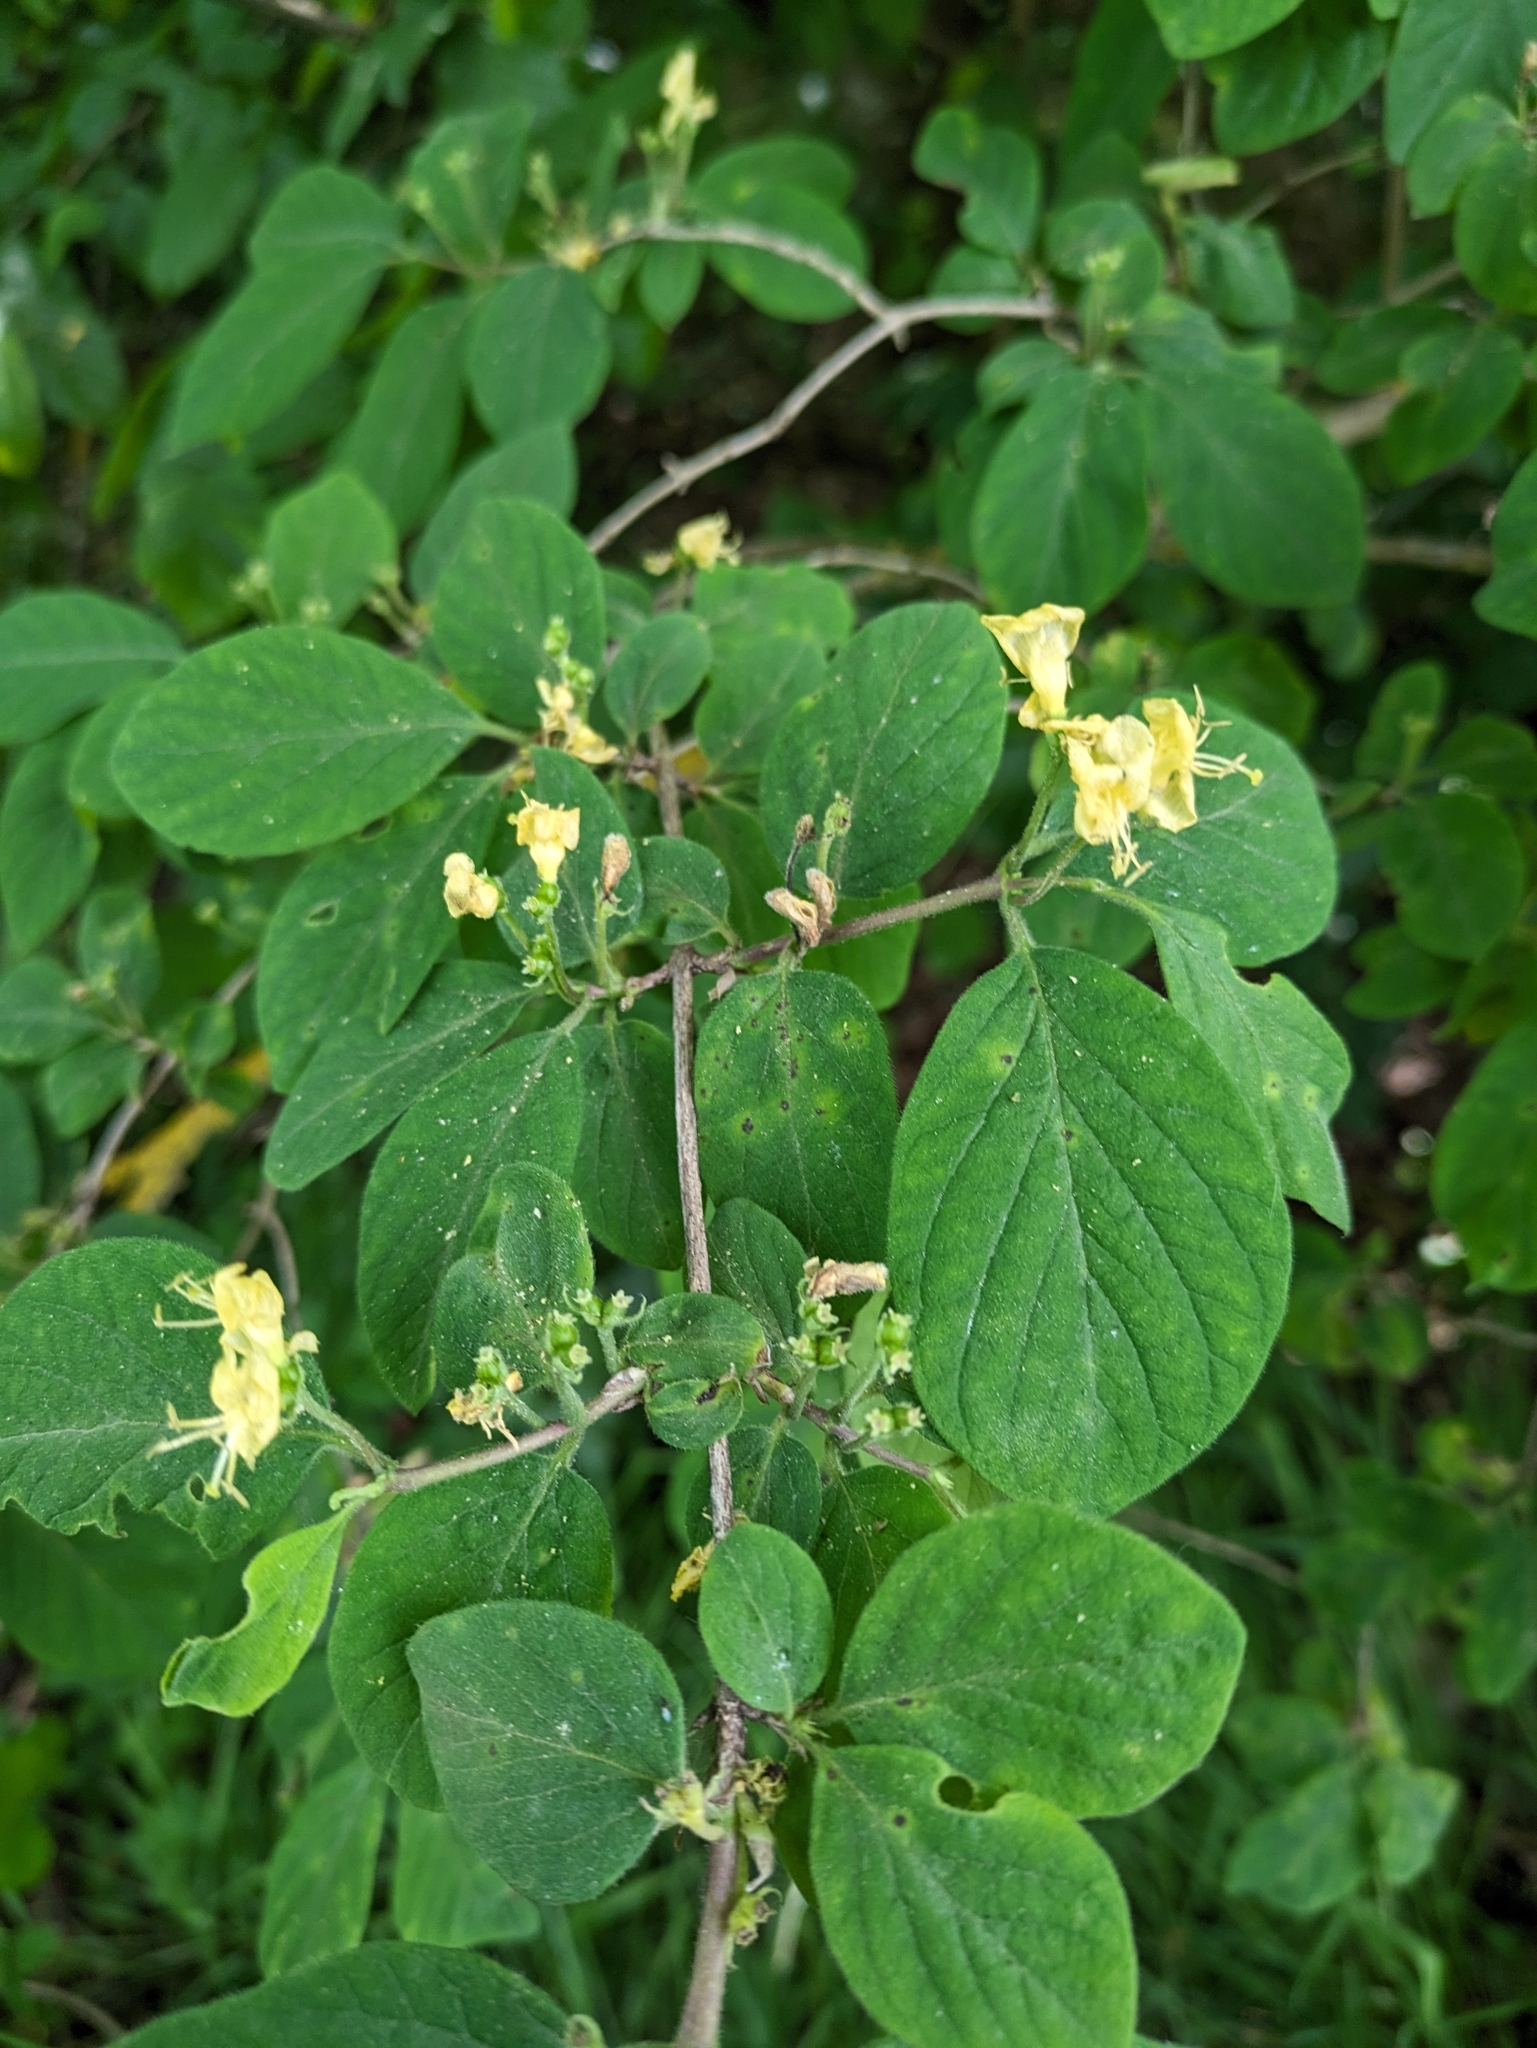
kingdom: Plantae
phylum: Tracheophyta
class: Magnoliopsida
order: Dipsacales
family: Caprifoliaceae
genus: Lonicera
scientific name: Lonicera xylosteum
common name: Fly honeysuckle
